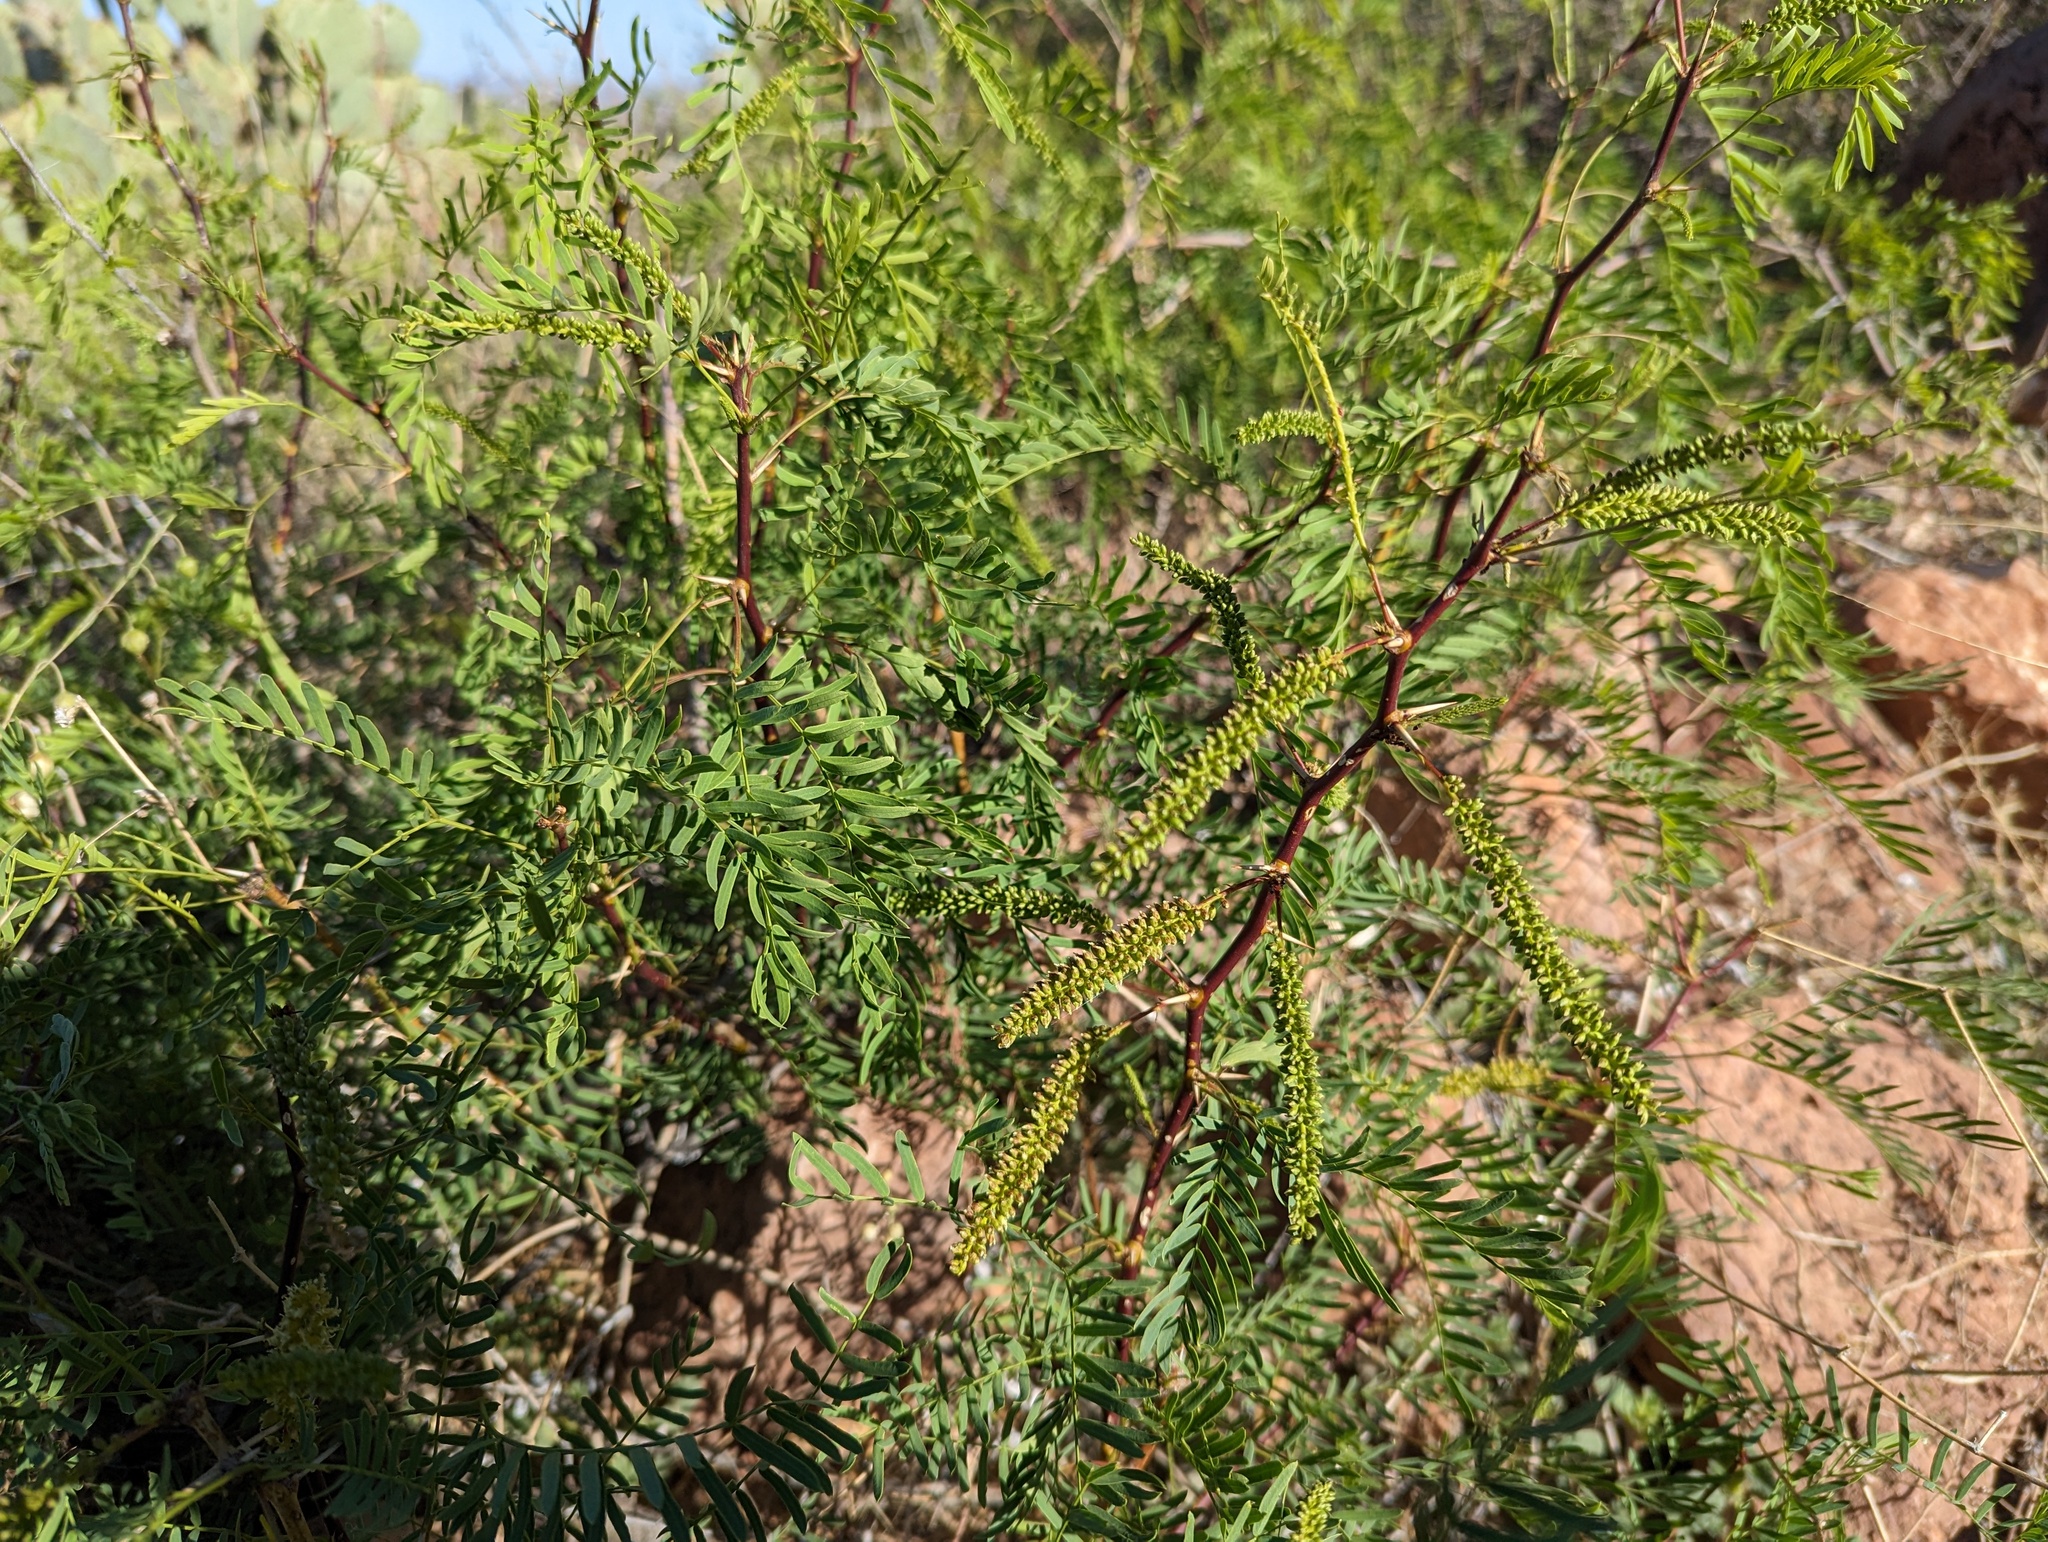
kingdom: Plantae
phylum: Tracheophyta
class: Magnoliopsida
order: Fabales
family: Fabaceae
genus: Prosopis
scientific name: Prosopis glandulosa
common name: Honey mesquite
